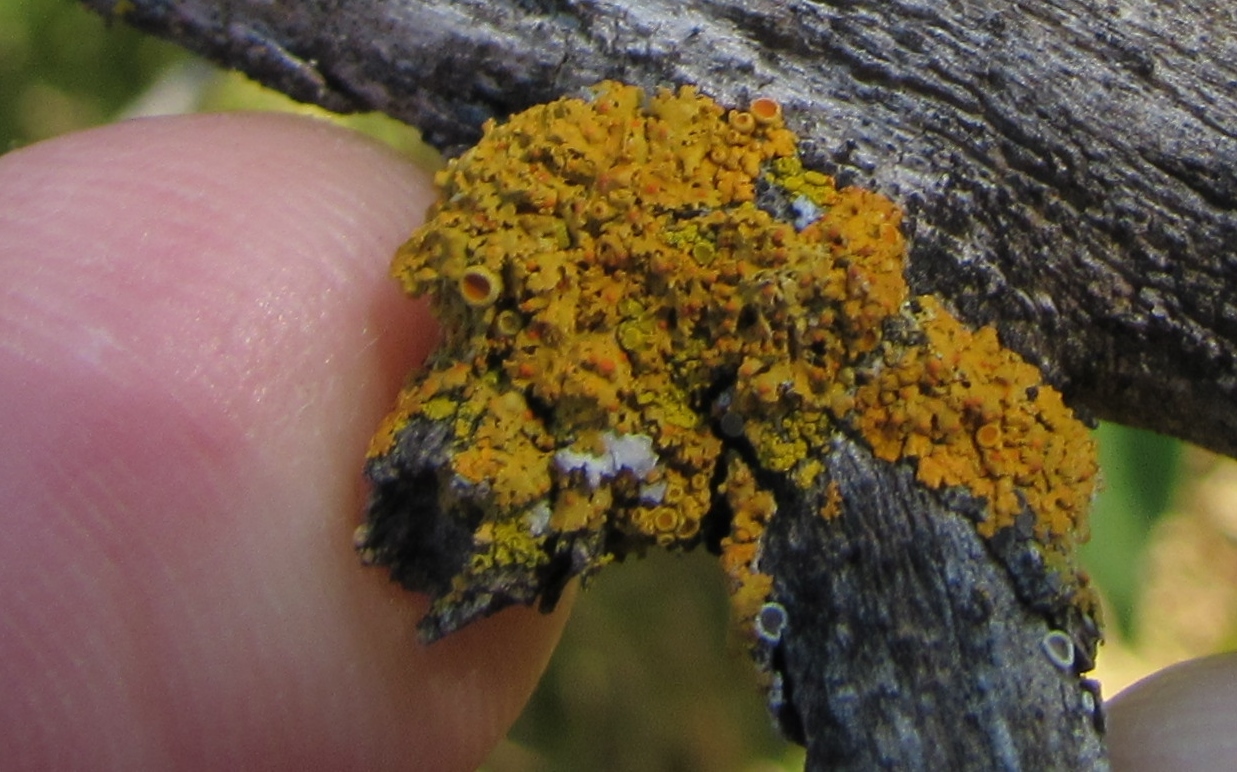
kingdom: Fungi
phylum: Ascomycota
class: Lecanoromycetes
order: Teloschistales
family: Teloschistaceae
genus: Xanthoria
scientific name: Xanthoria parietina
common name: Common orange lichen
